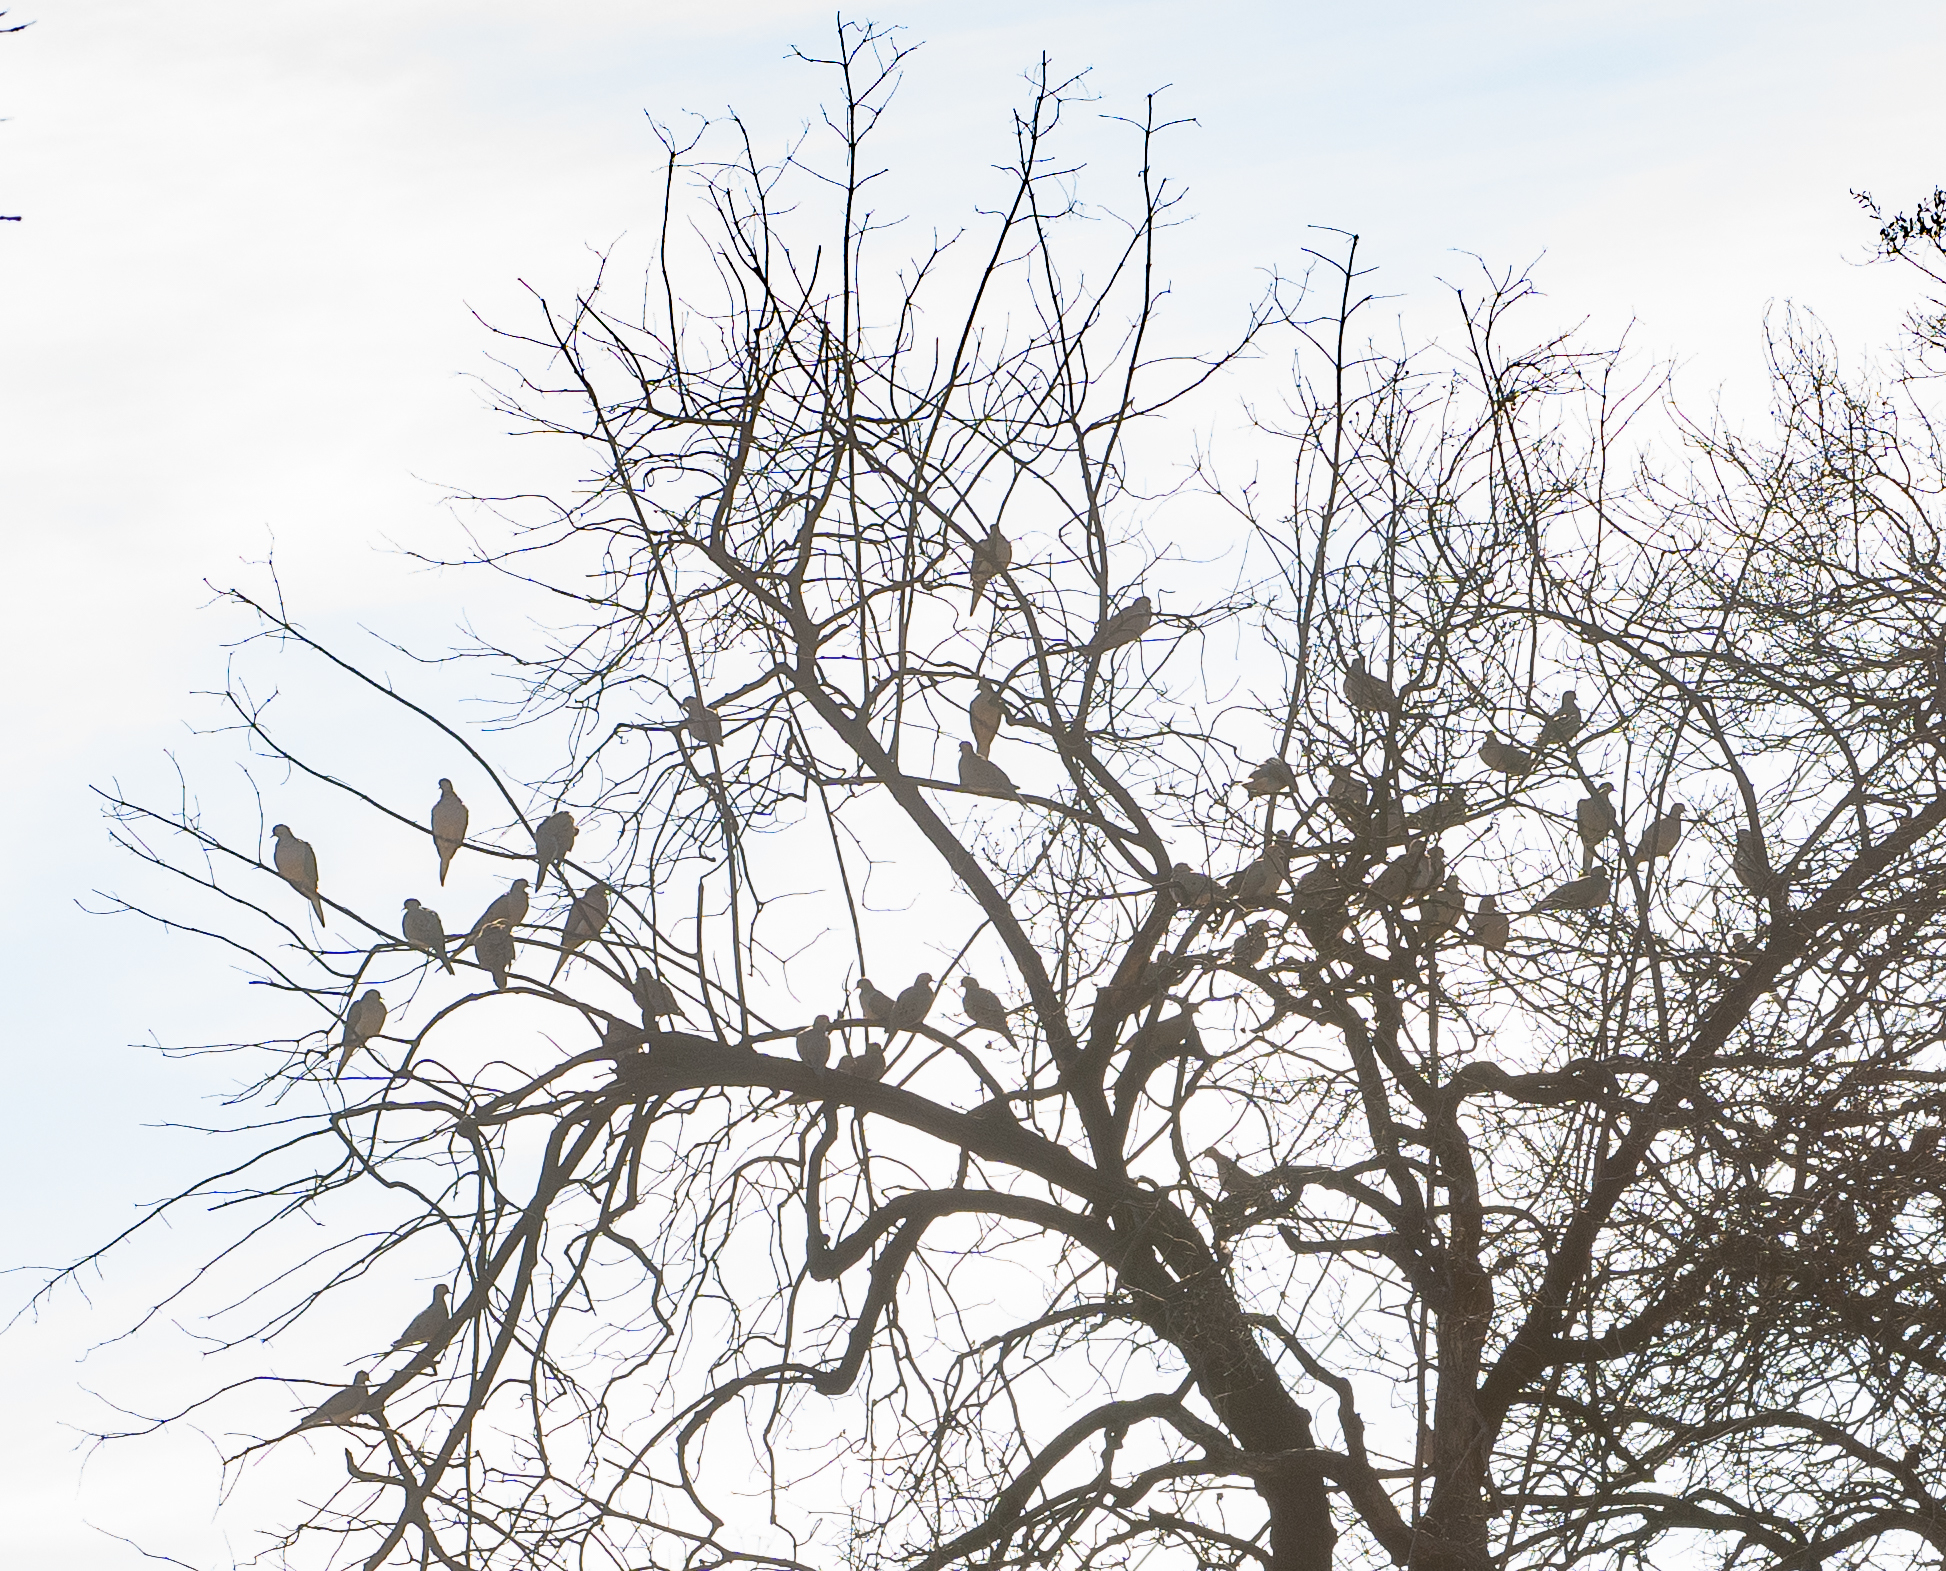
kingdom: Animalia
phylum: Chordata
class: Aves
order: Columbiformes
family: Columbidae
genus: Zenaida
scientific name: Zenaida macroura
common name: Mourning dove
